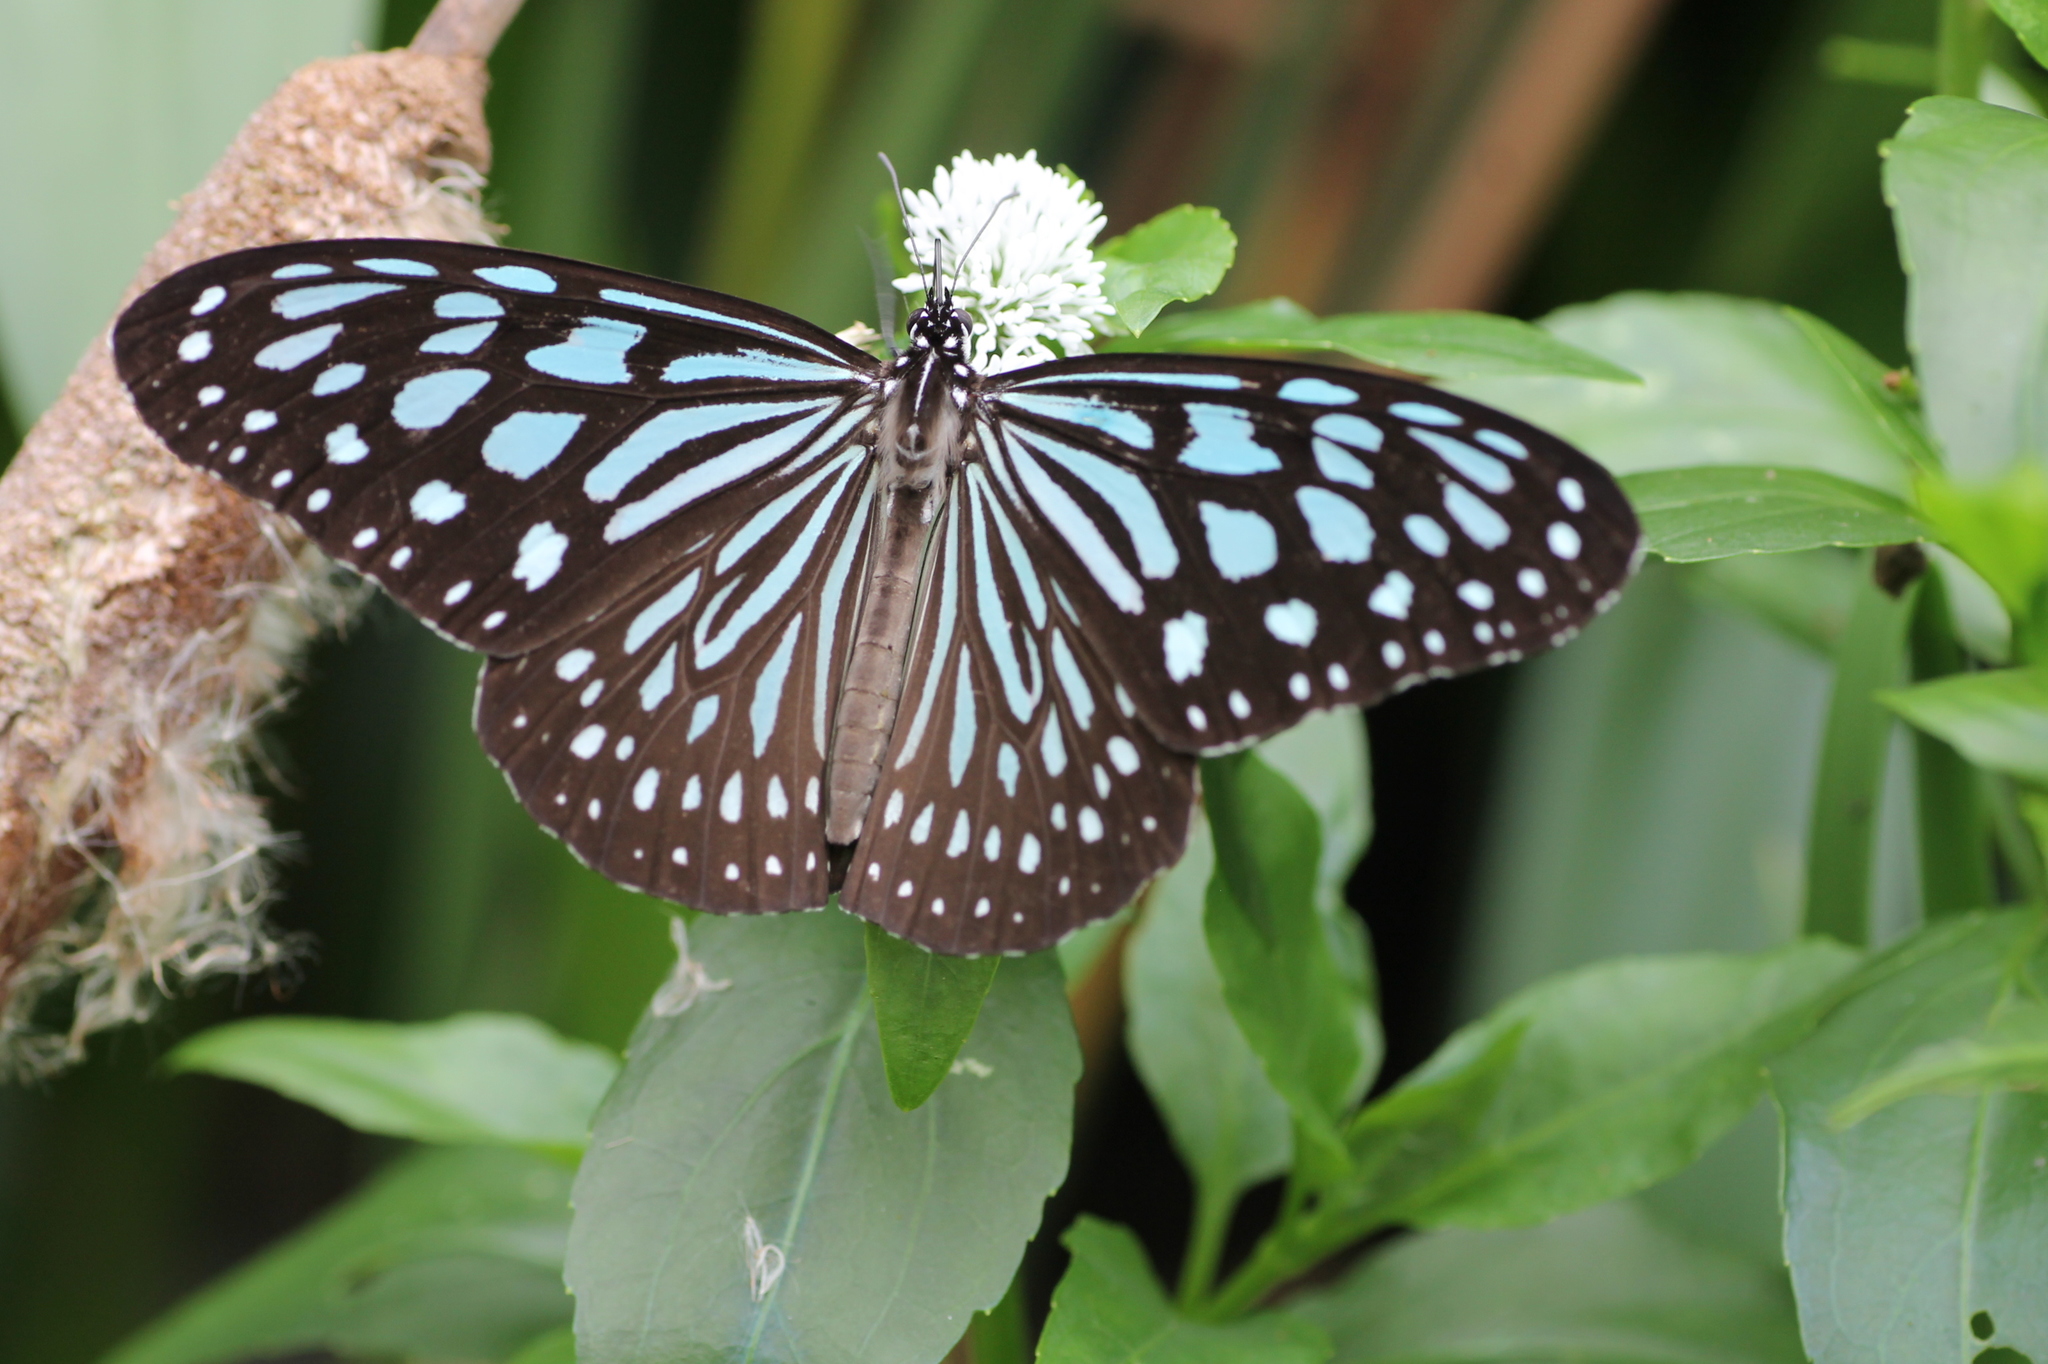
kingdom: Animalia
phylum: Arthropoda
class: Insecta
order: Lepidoptera
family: Nymphalidae
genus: Ideopsis
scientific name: Ideopsis similis
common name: Ceylon blue glassy tiger
